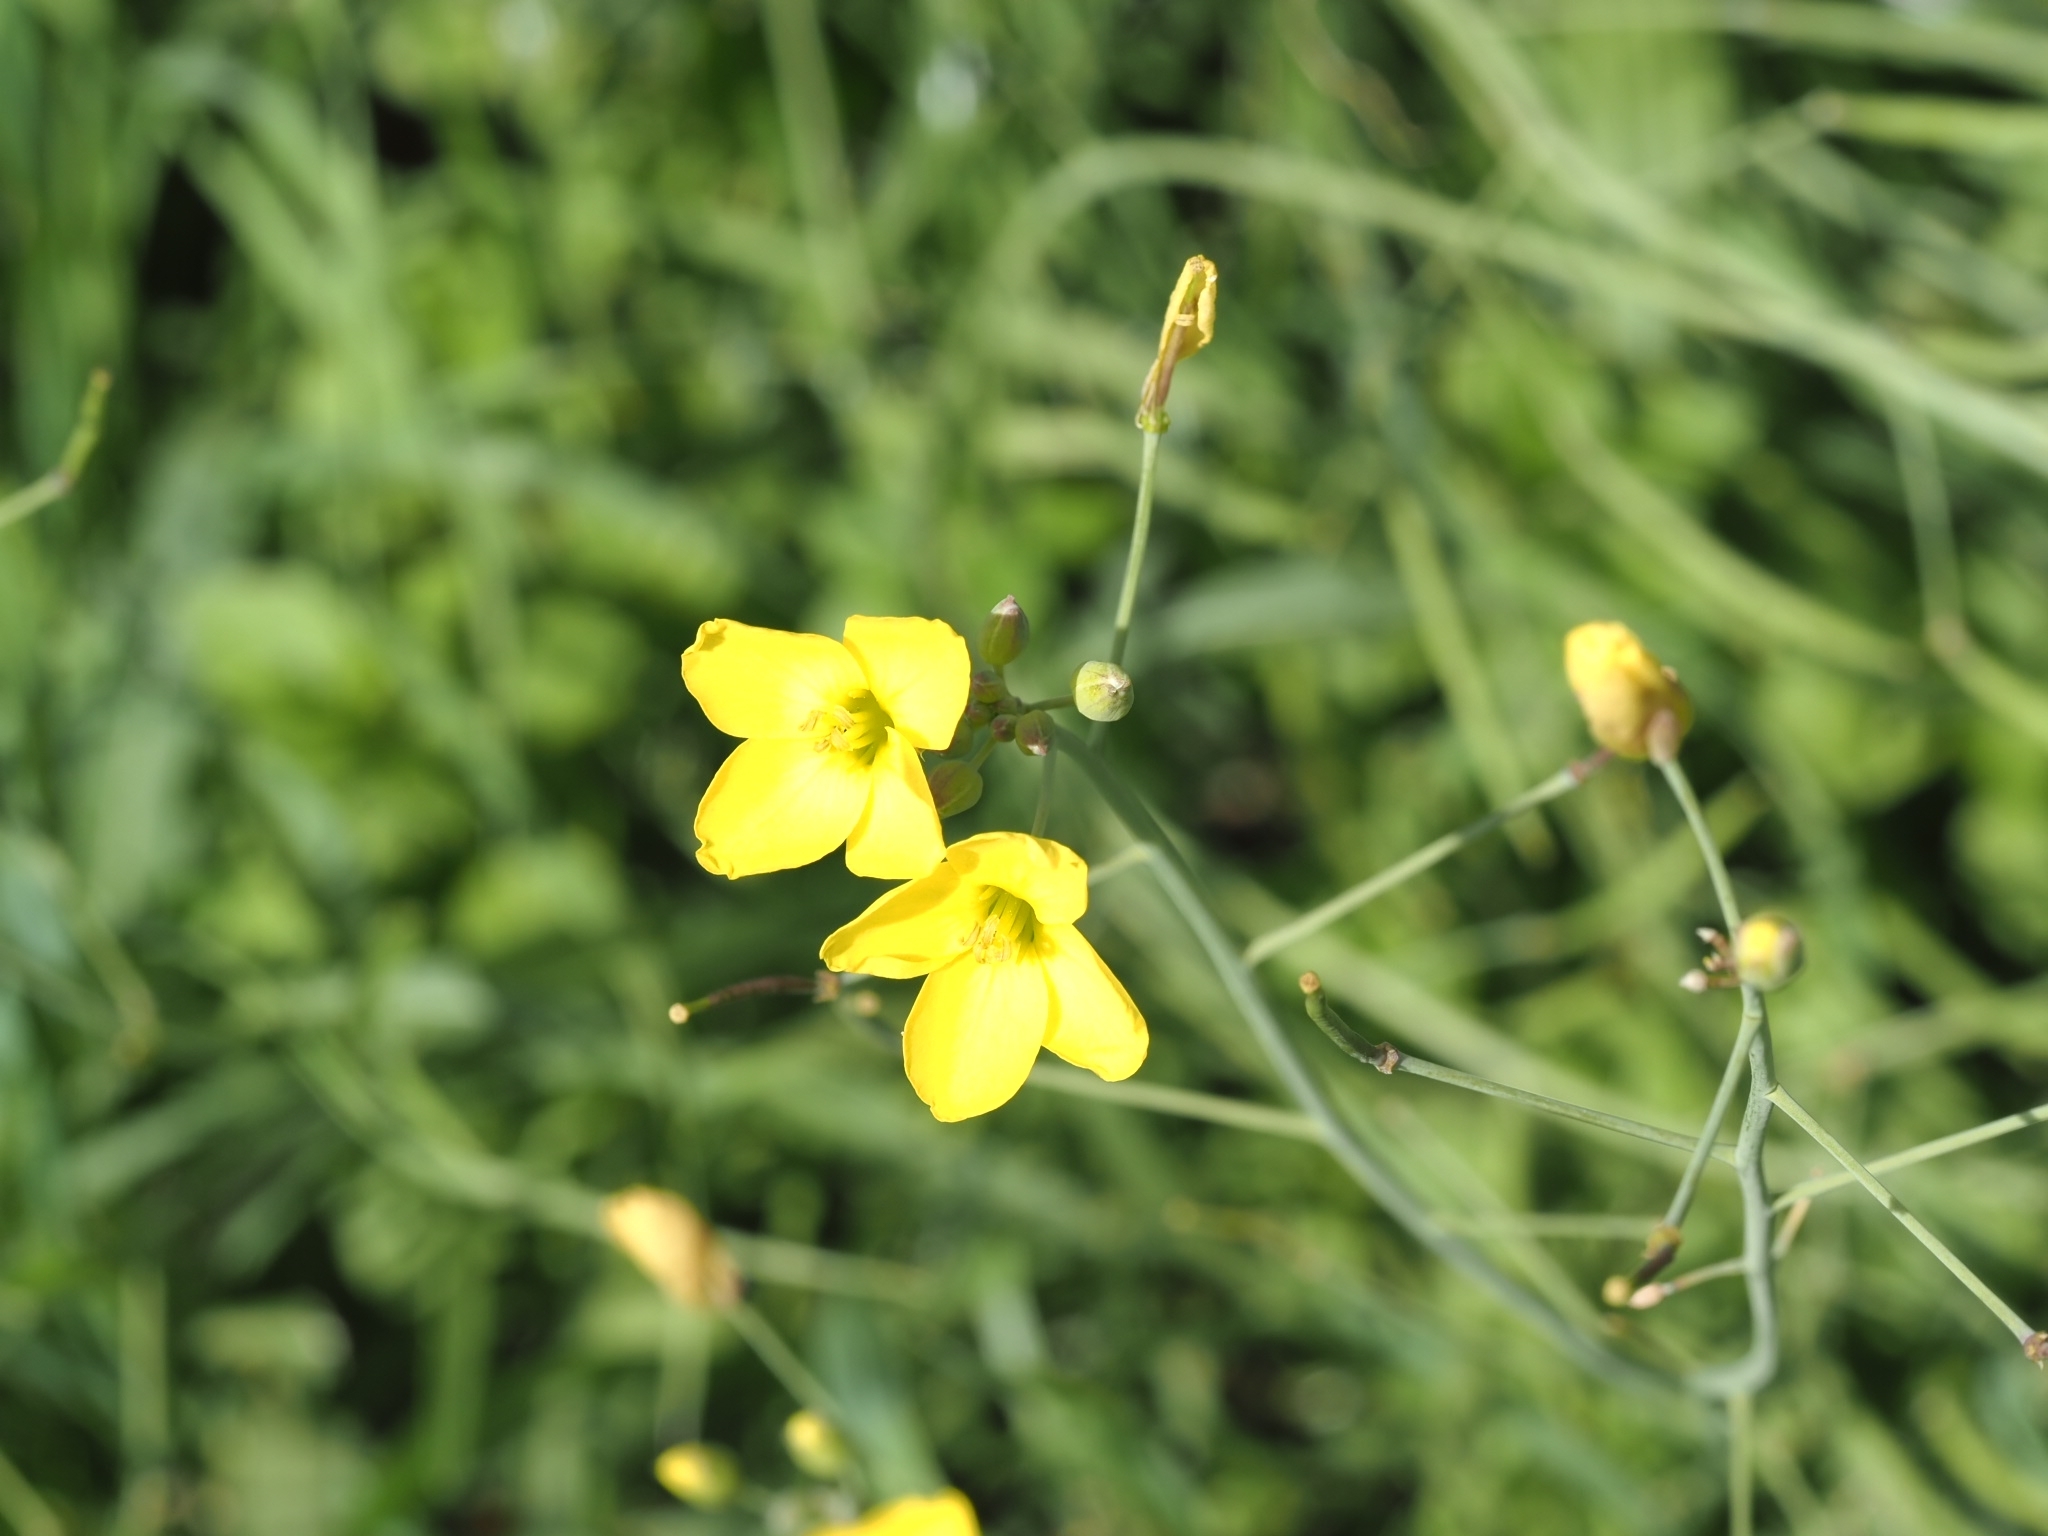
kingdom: Plantae
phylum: Tracheophyta
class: Magnoliopsida
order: Brassicales
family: Brassicaceae
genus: Diplotaxis
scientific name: Diplotaxis tenuifolia
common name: Perennial wall-rocket
